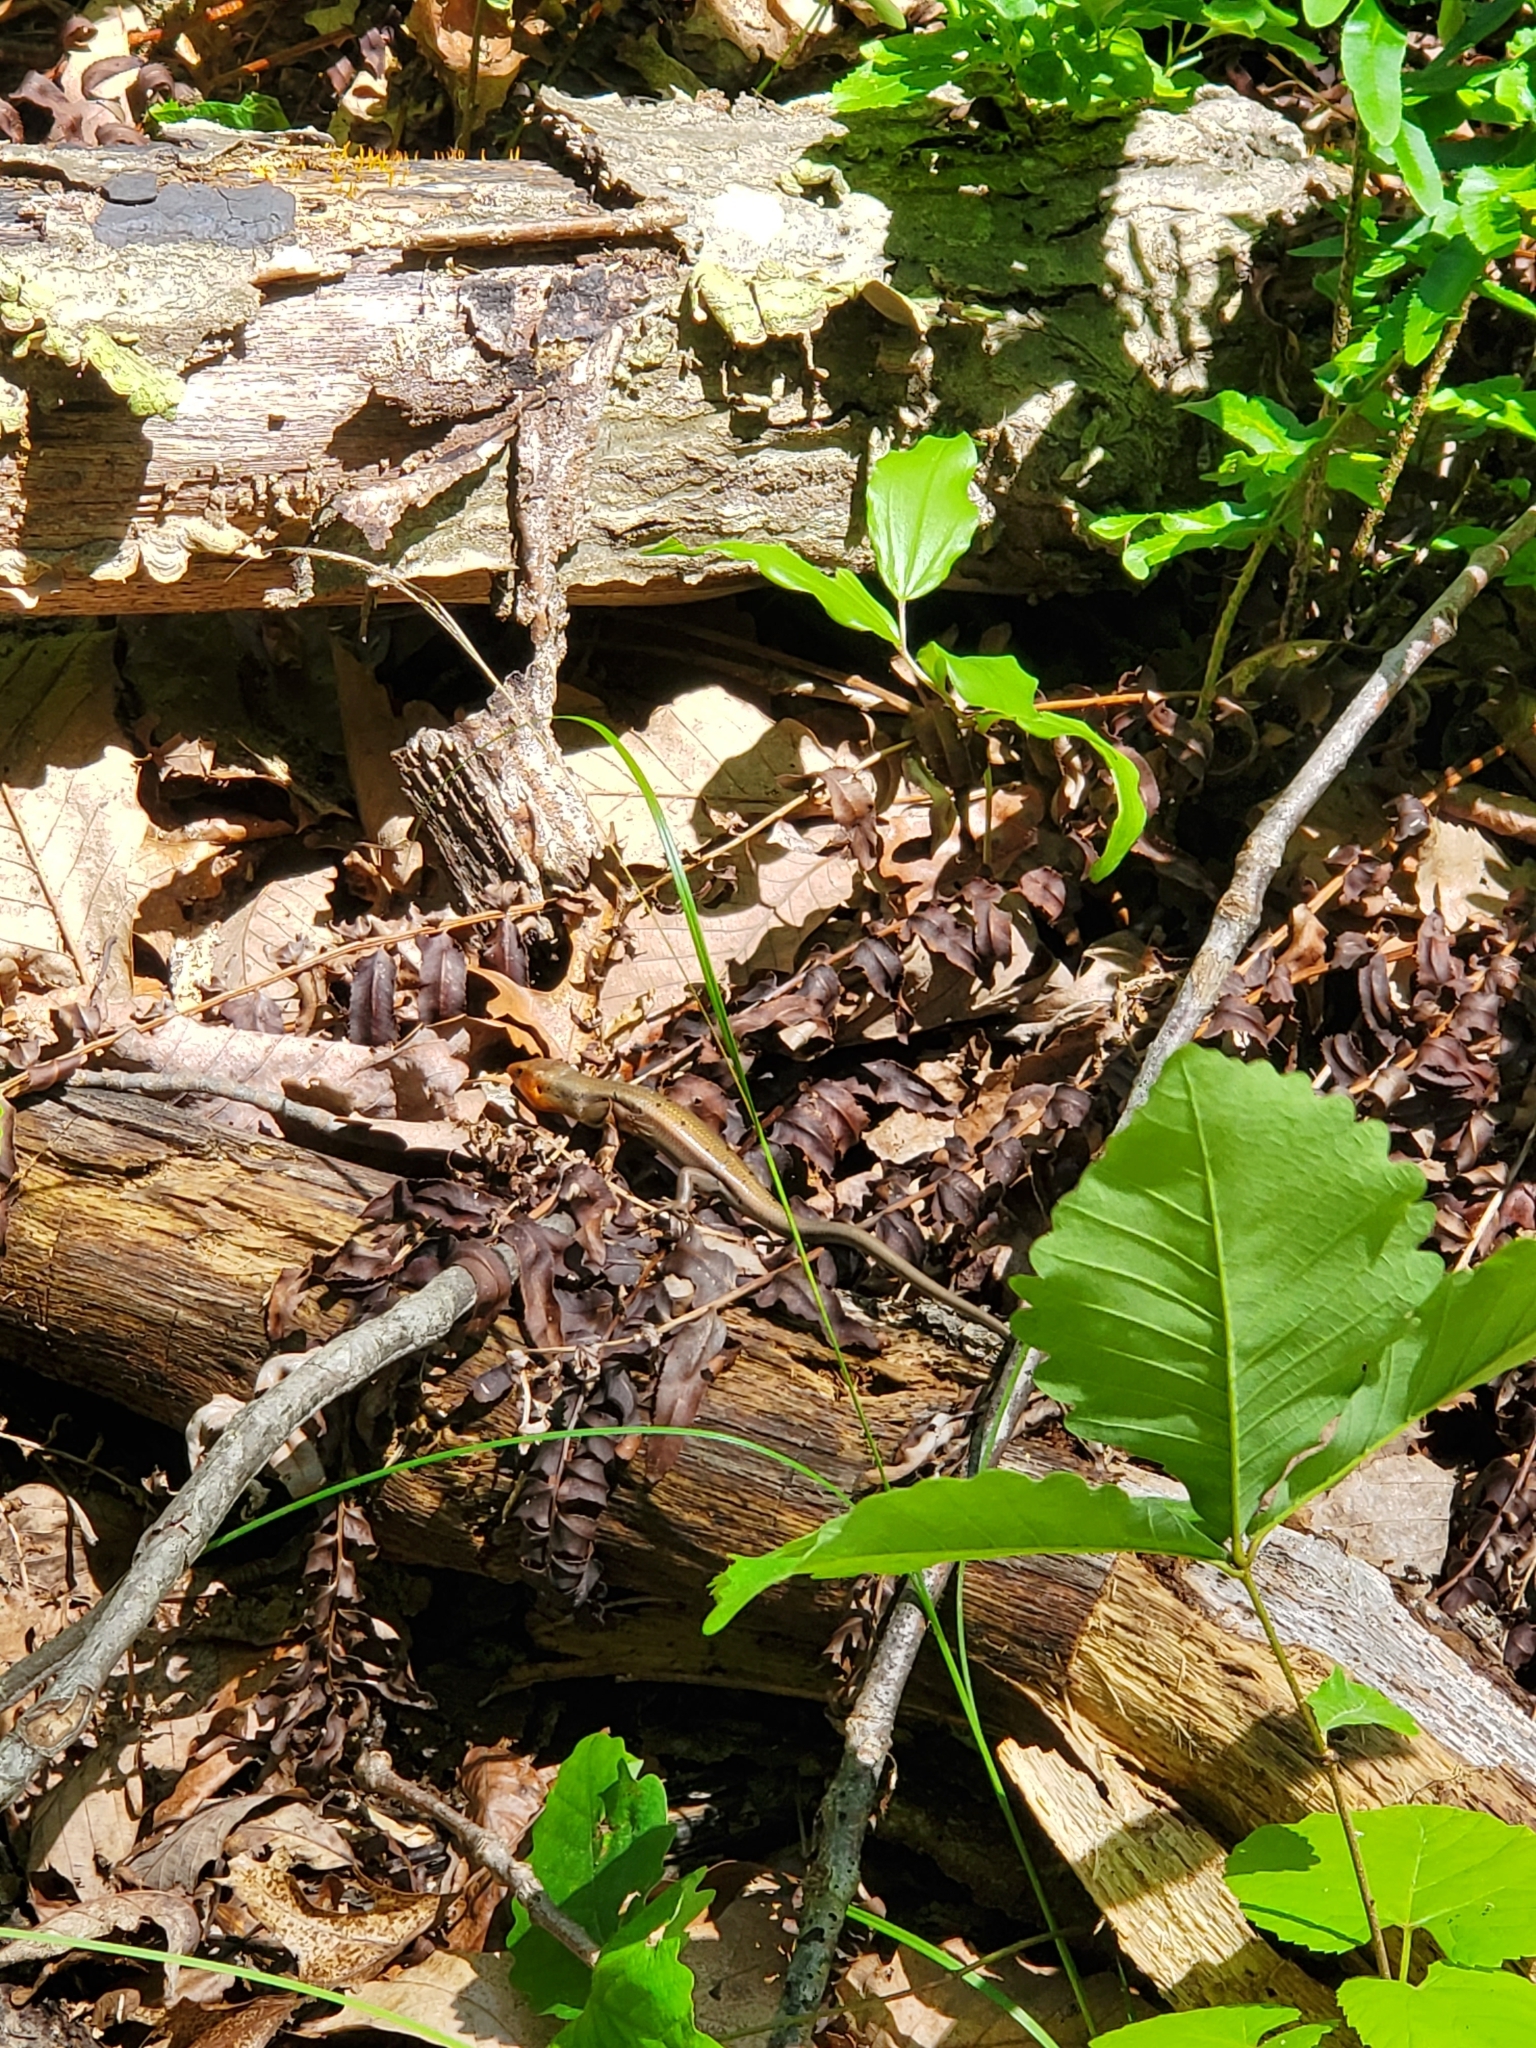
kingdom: Animalia
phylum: Chordata
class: Squamata
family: Scincidae
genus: Plestiodon
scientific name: Plestiodon fasciatus
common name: Five-lined skink
